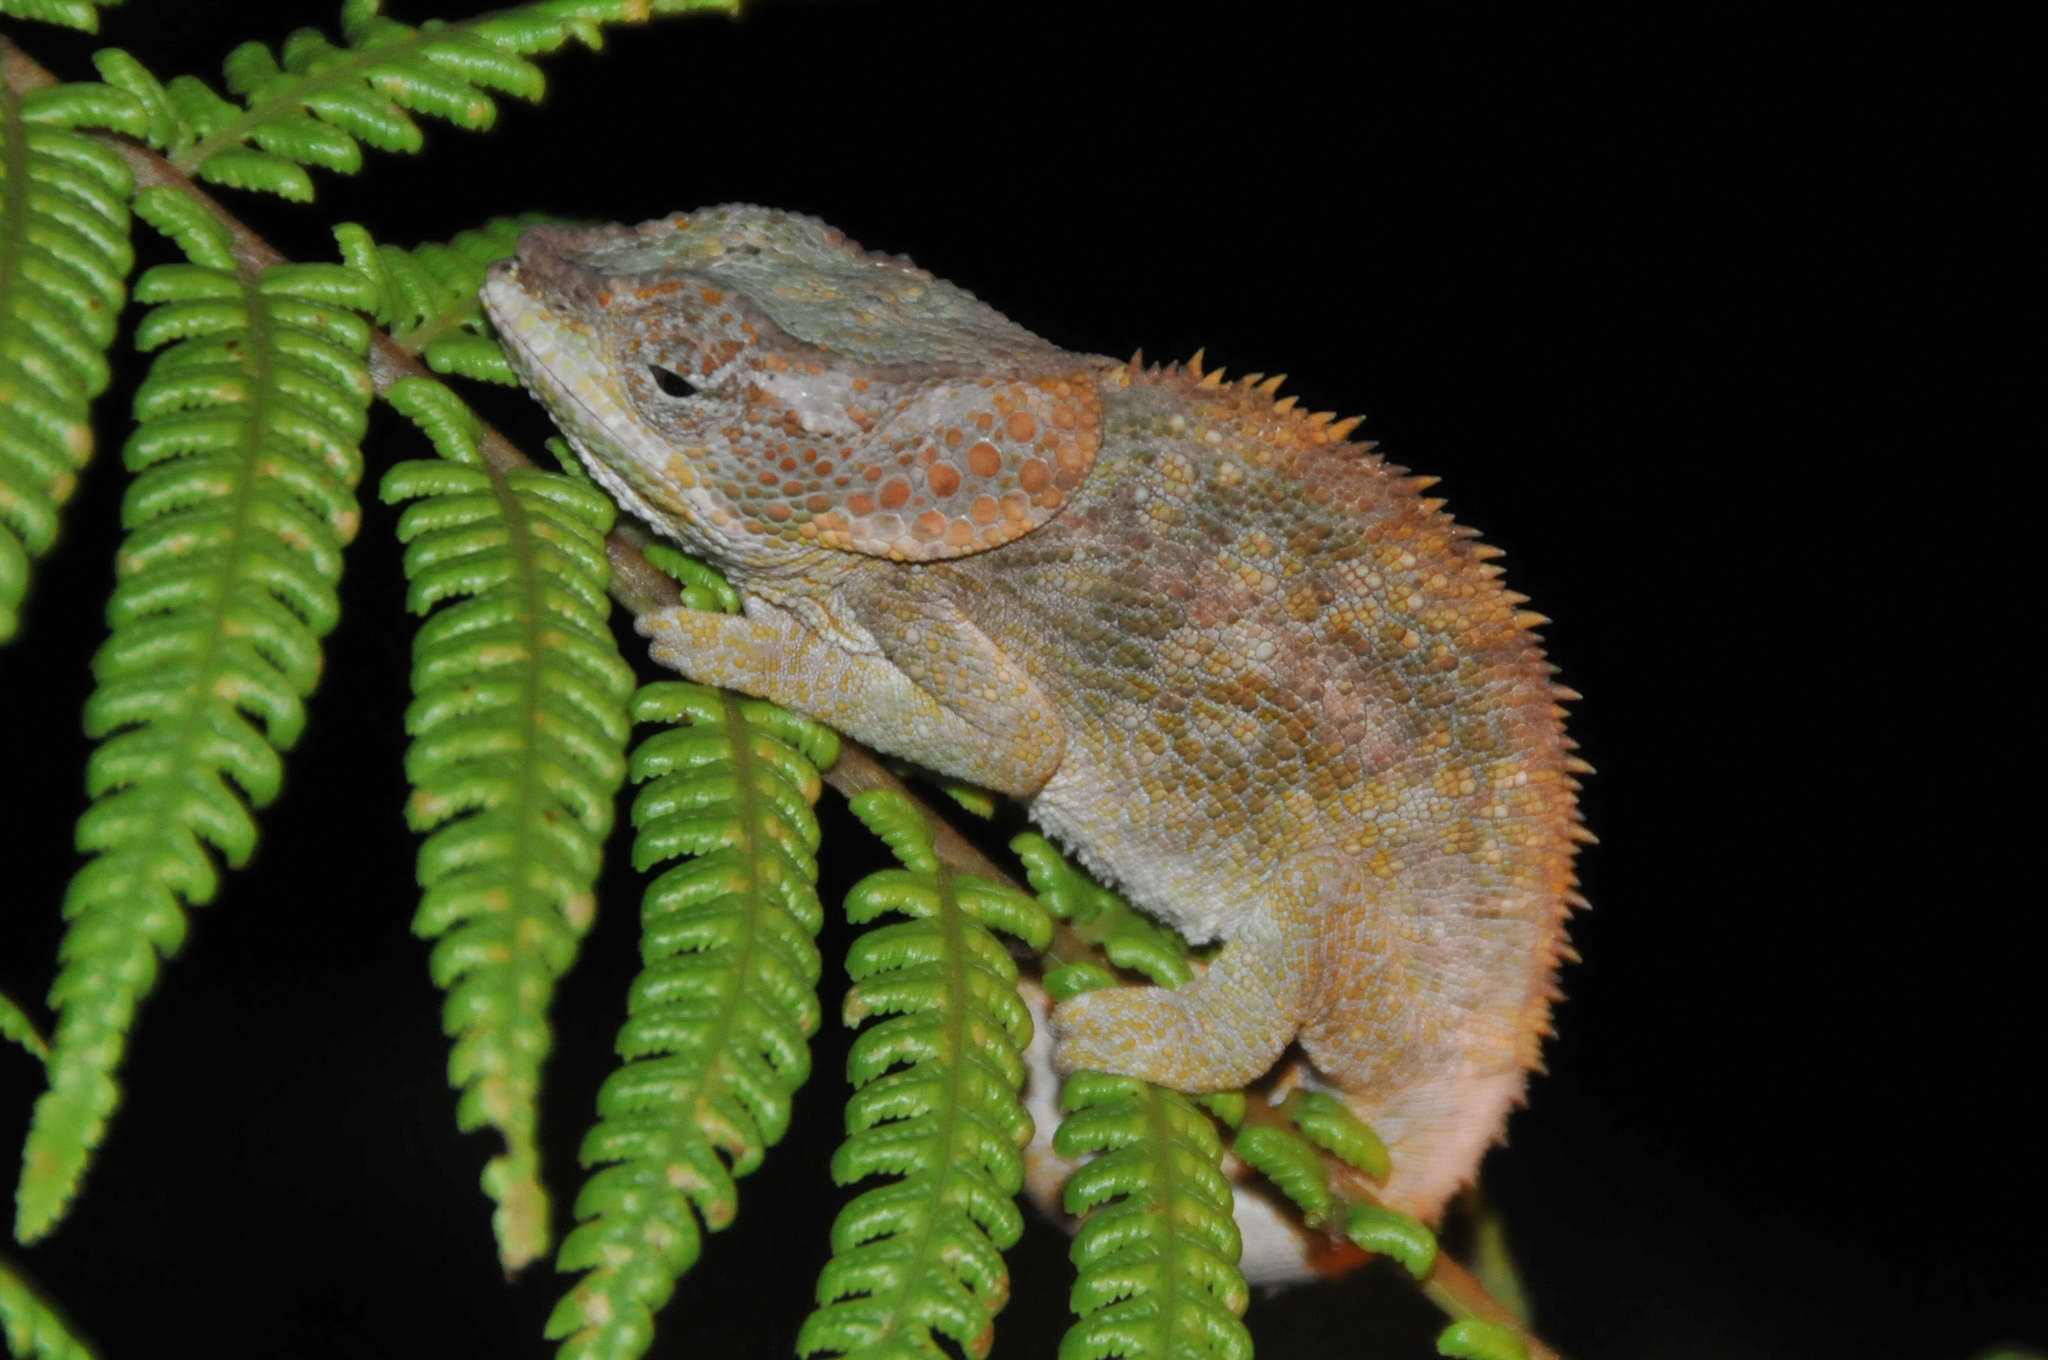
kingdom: Animalia
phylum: Chordata
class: Squamata
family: Chamaeleonidae
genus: Calumma
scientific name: Calumma brevicorne
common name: Short-horned chameleon
